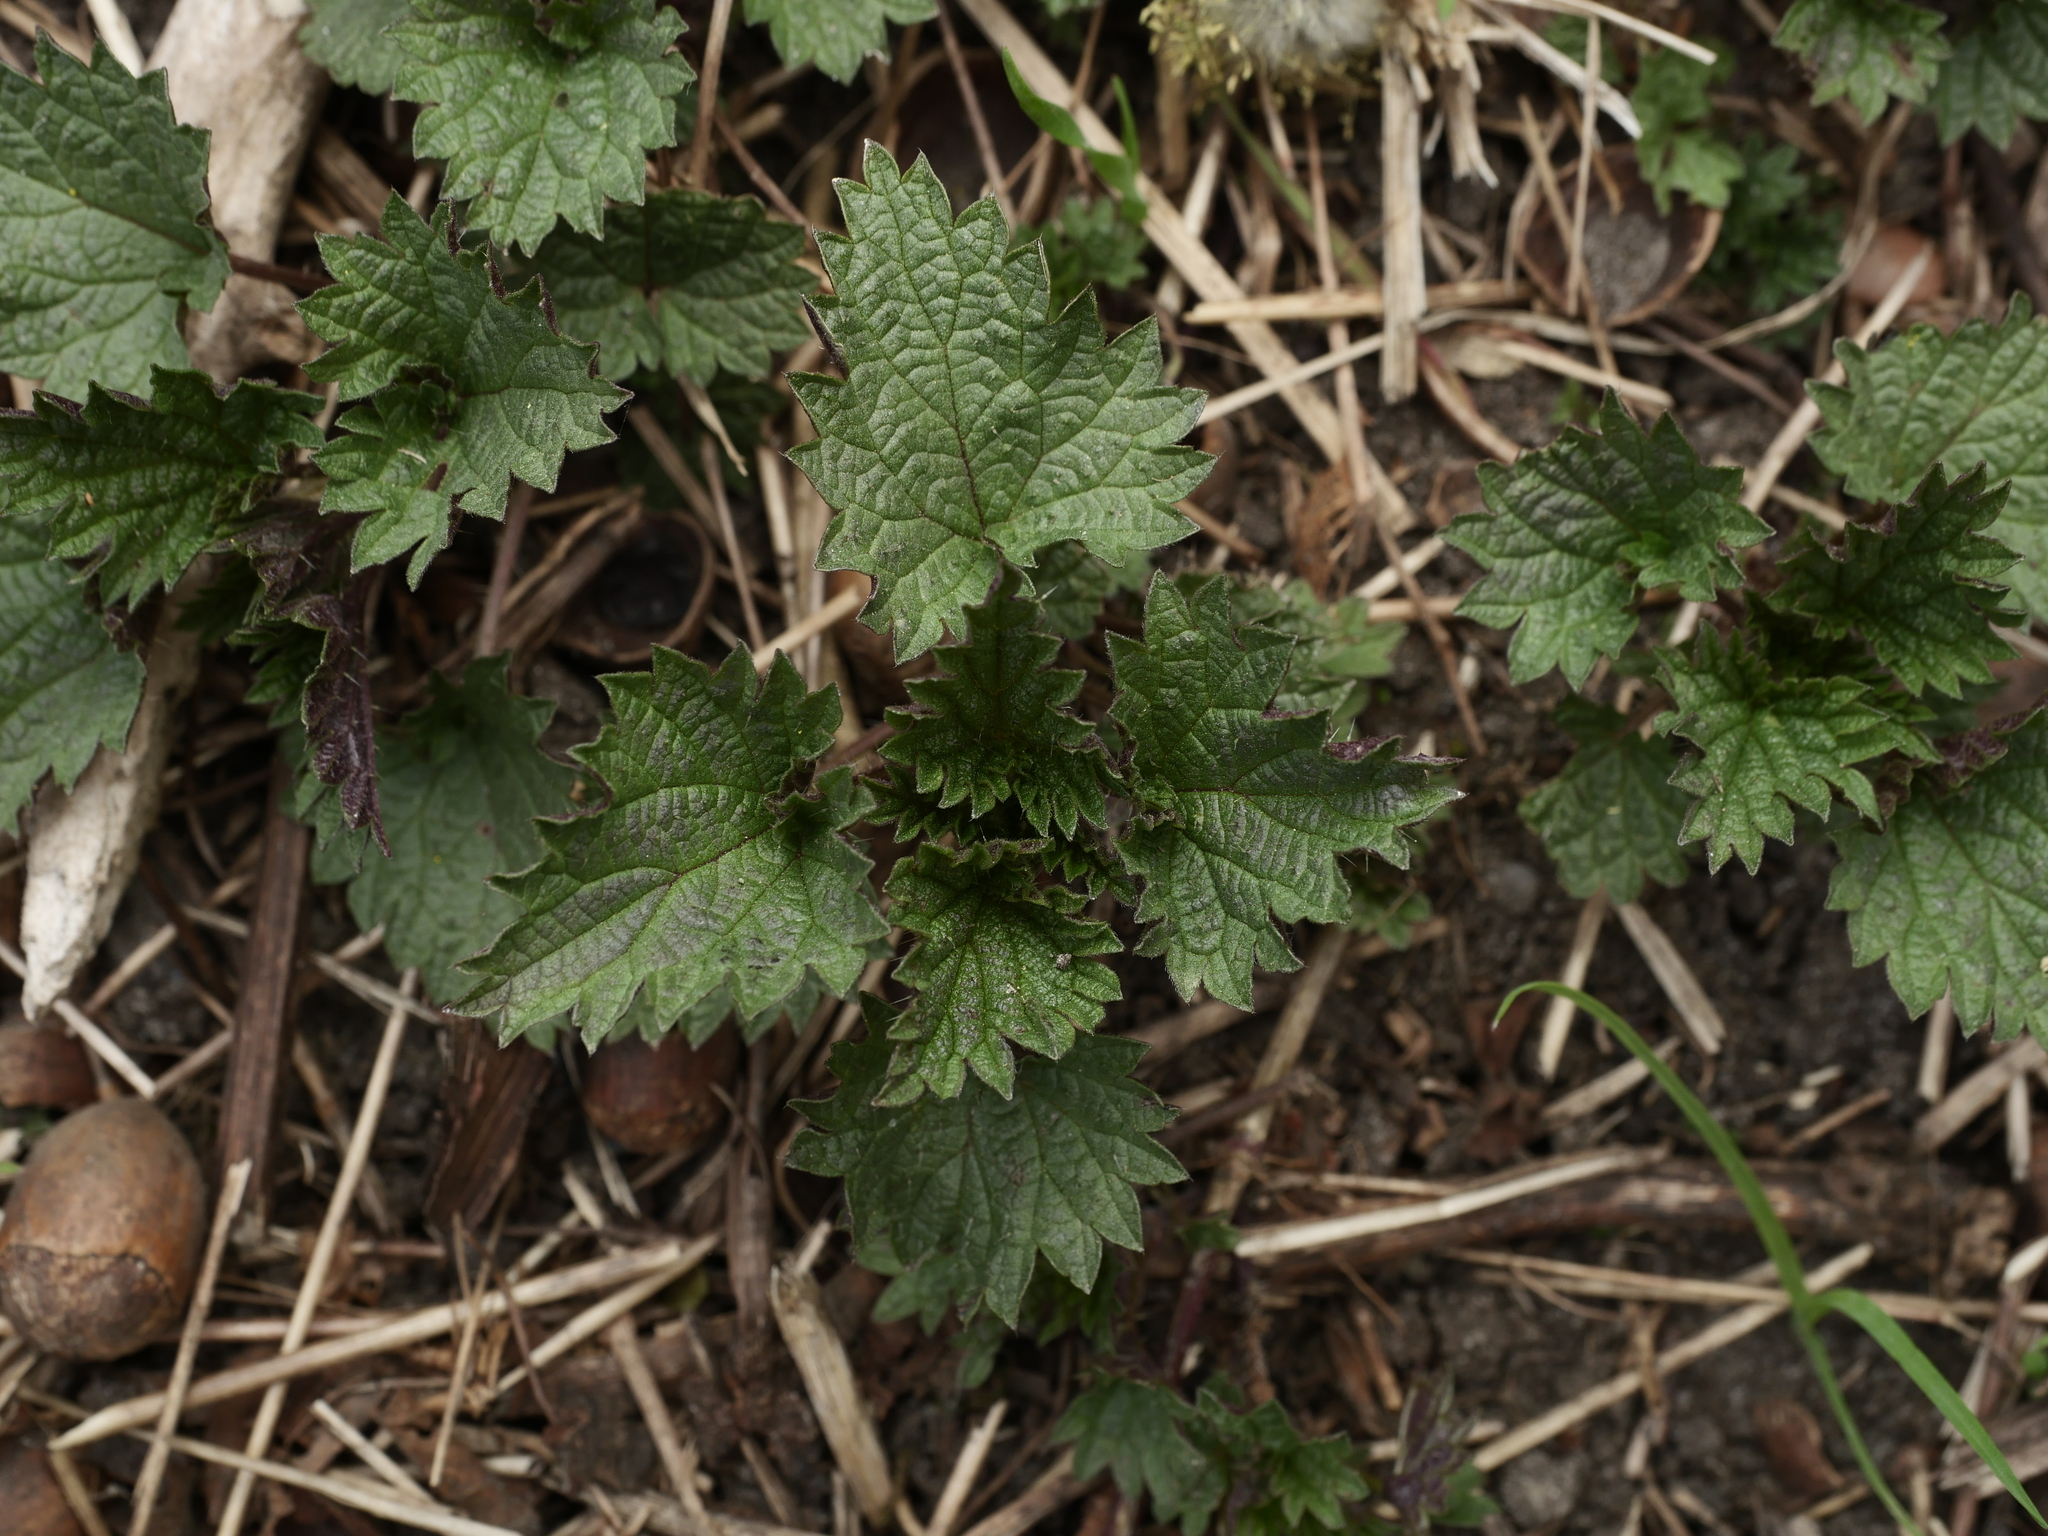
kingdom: Plantae
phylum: Tracheophyta
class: Magnoliopsida
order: Rosales
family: Urticaceae
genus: Urtica
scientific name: Urtica dioica
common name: Common nettle
